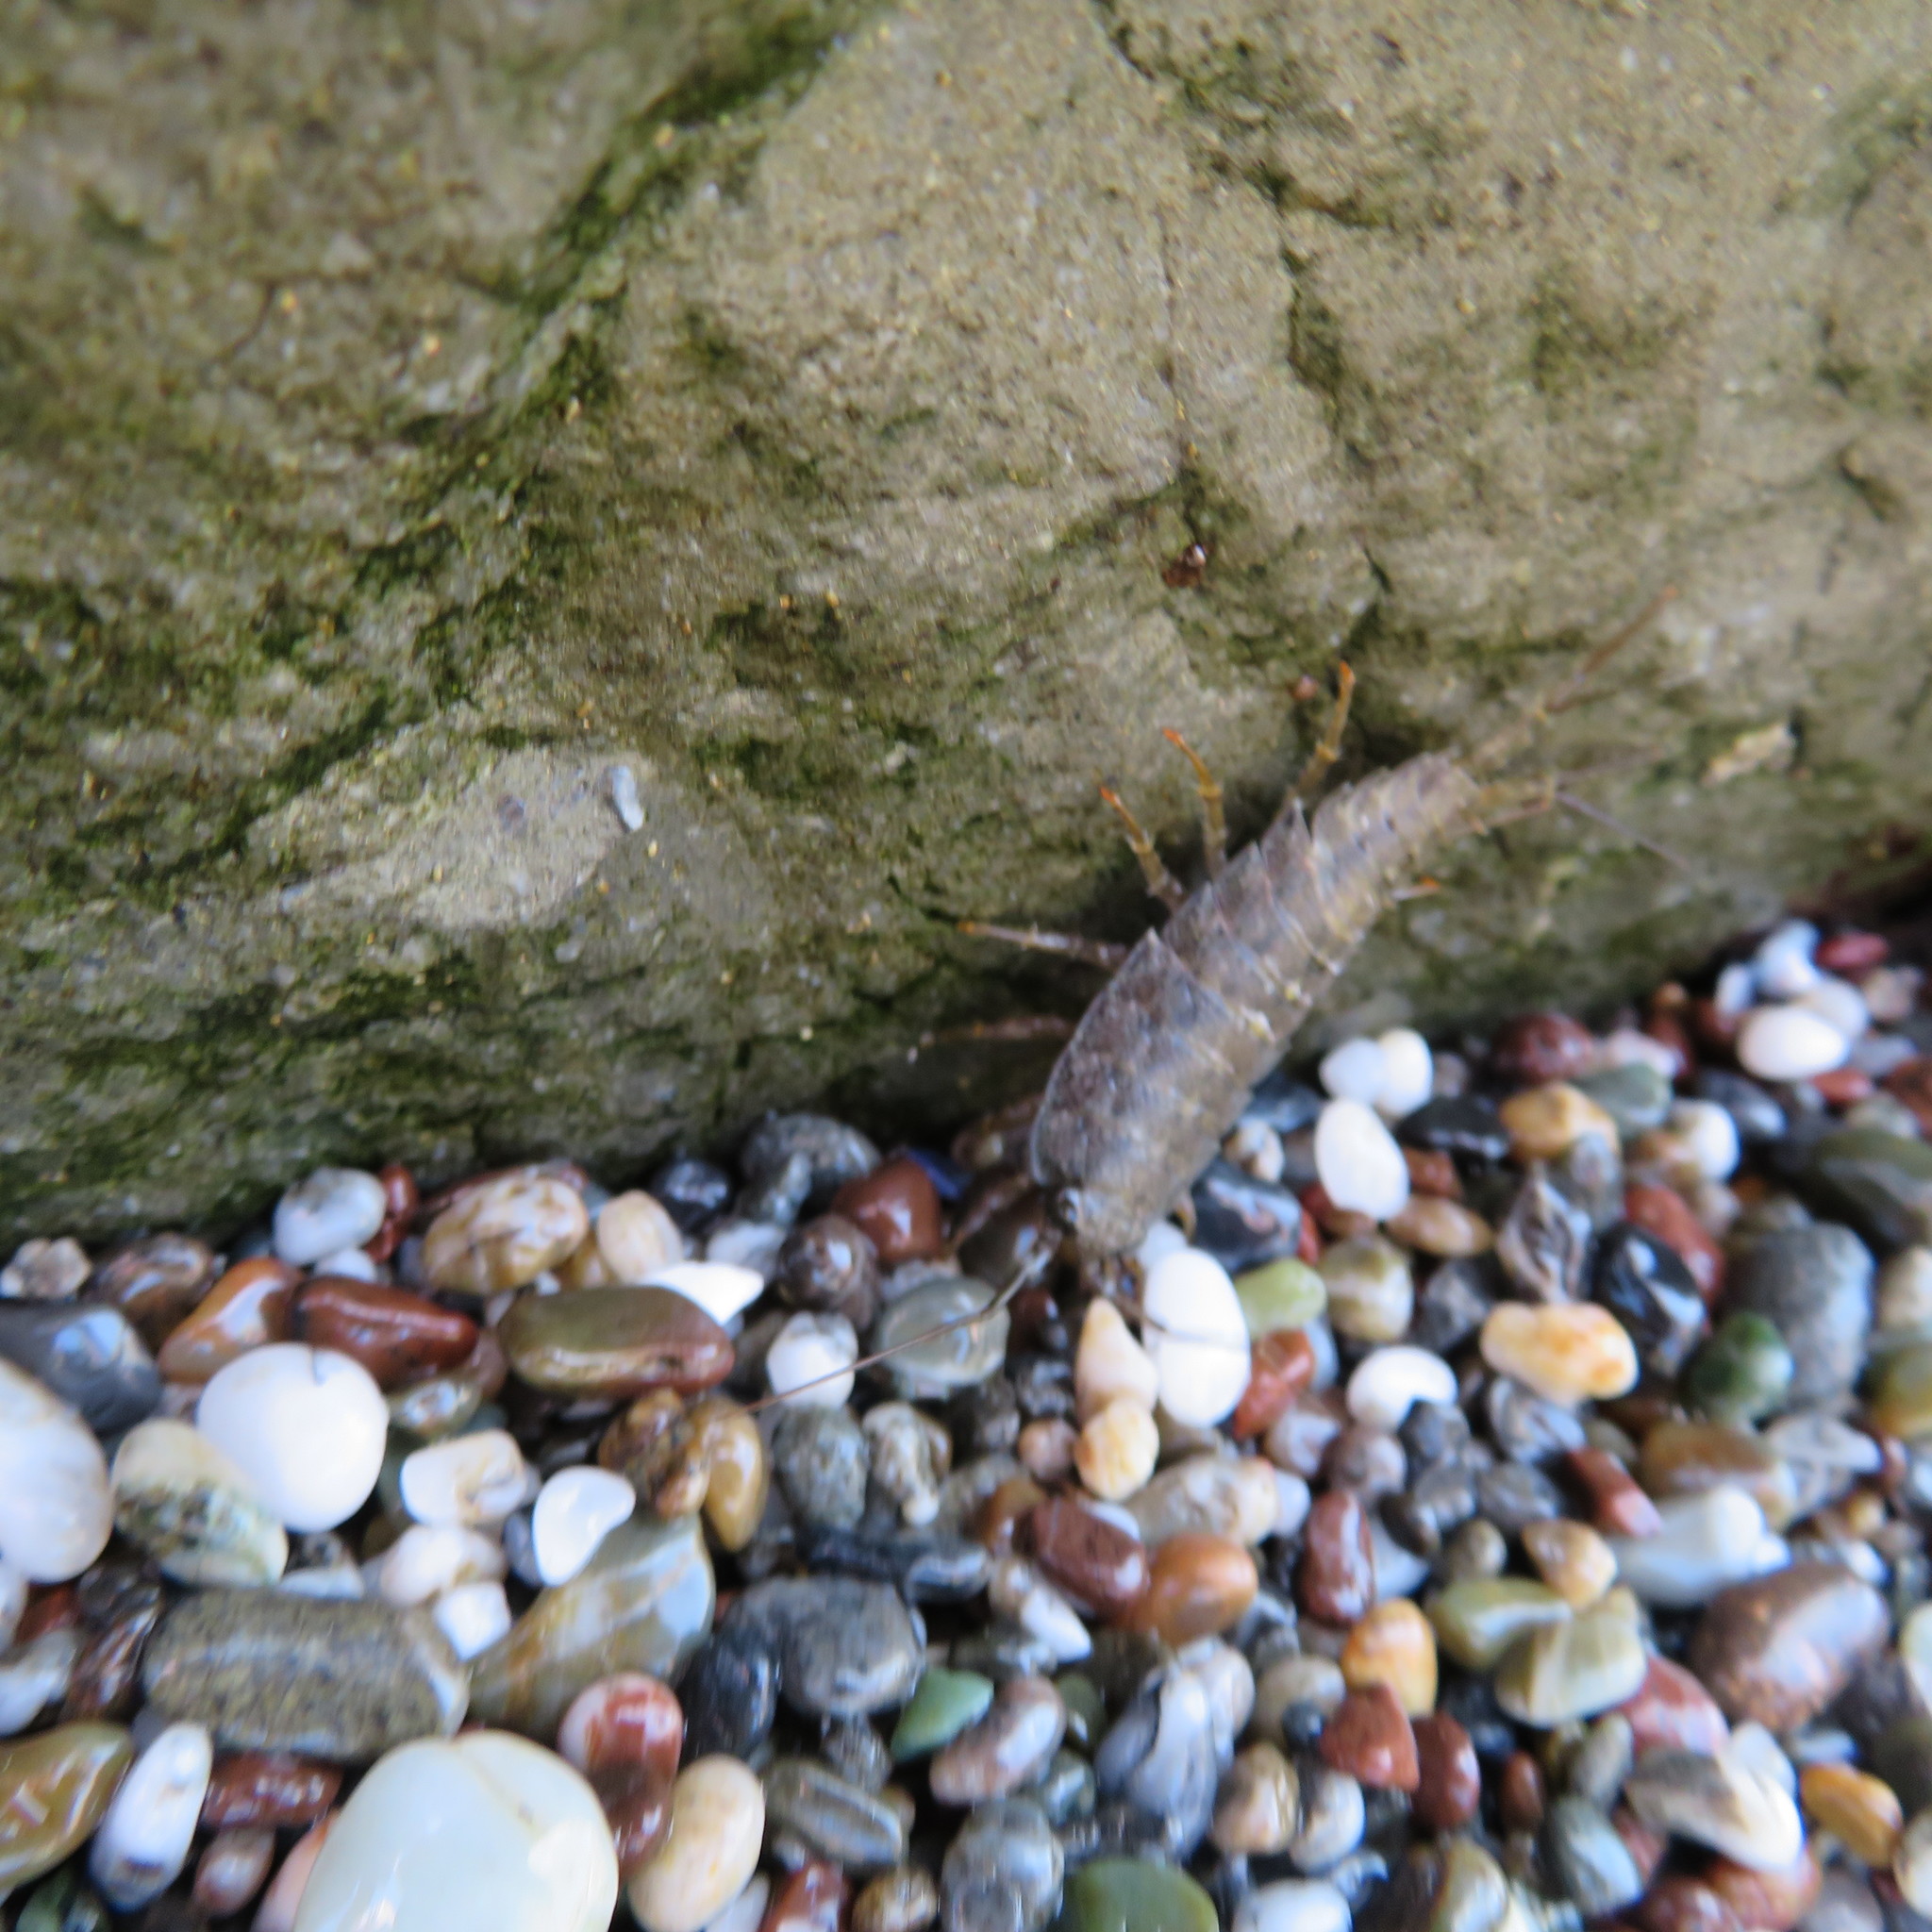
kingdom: Animalia
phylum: Arthropoda
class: Malacostraca
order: Isopoda
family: Ligiidae
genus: Ligia
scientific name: Ligia occidentalis
